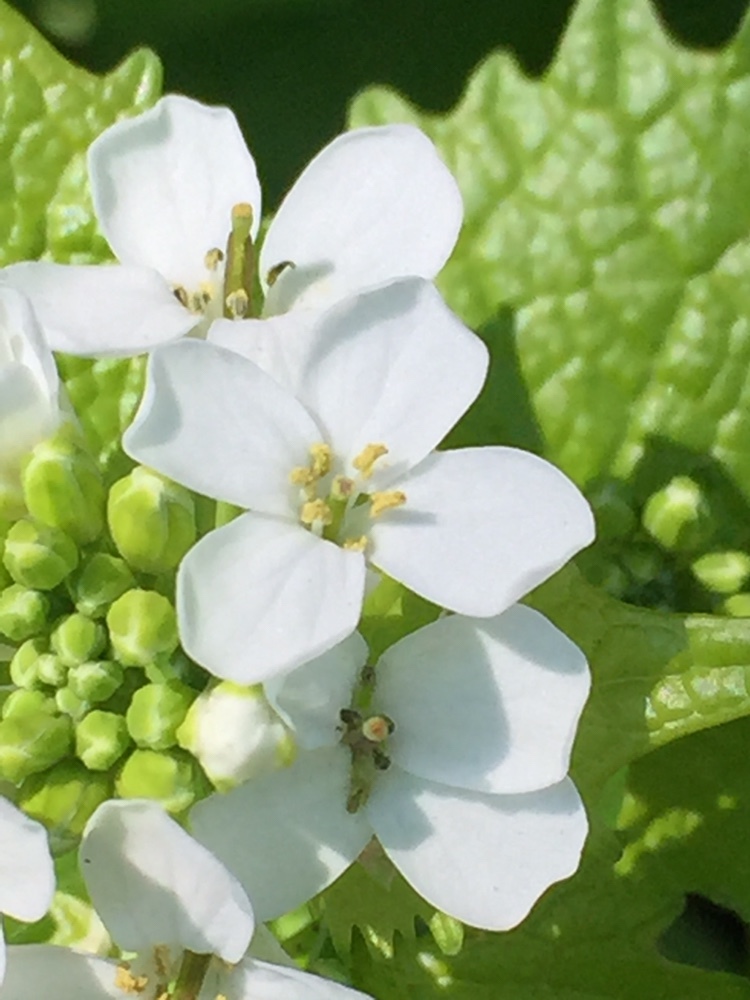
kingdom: Plantae
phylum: Tracheophyta
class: Magnoliopsida
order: Brassicales
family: Brassicaceae
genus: Alliaria
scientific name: Alliaria petiolata
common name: Garlic mustard
